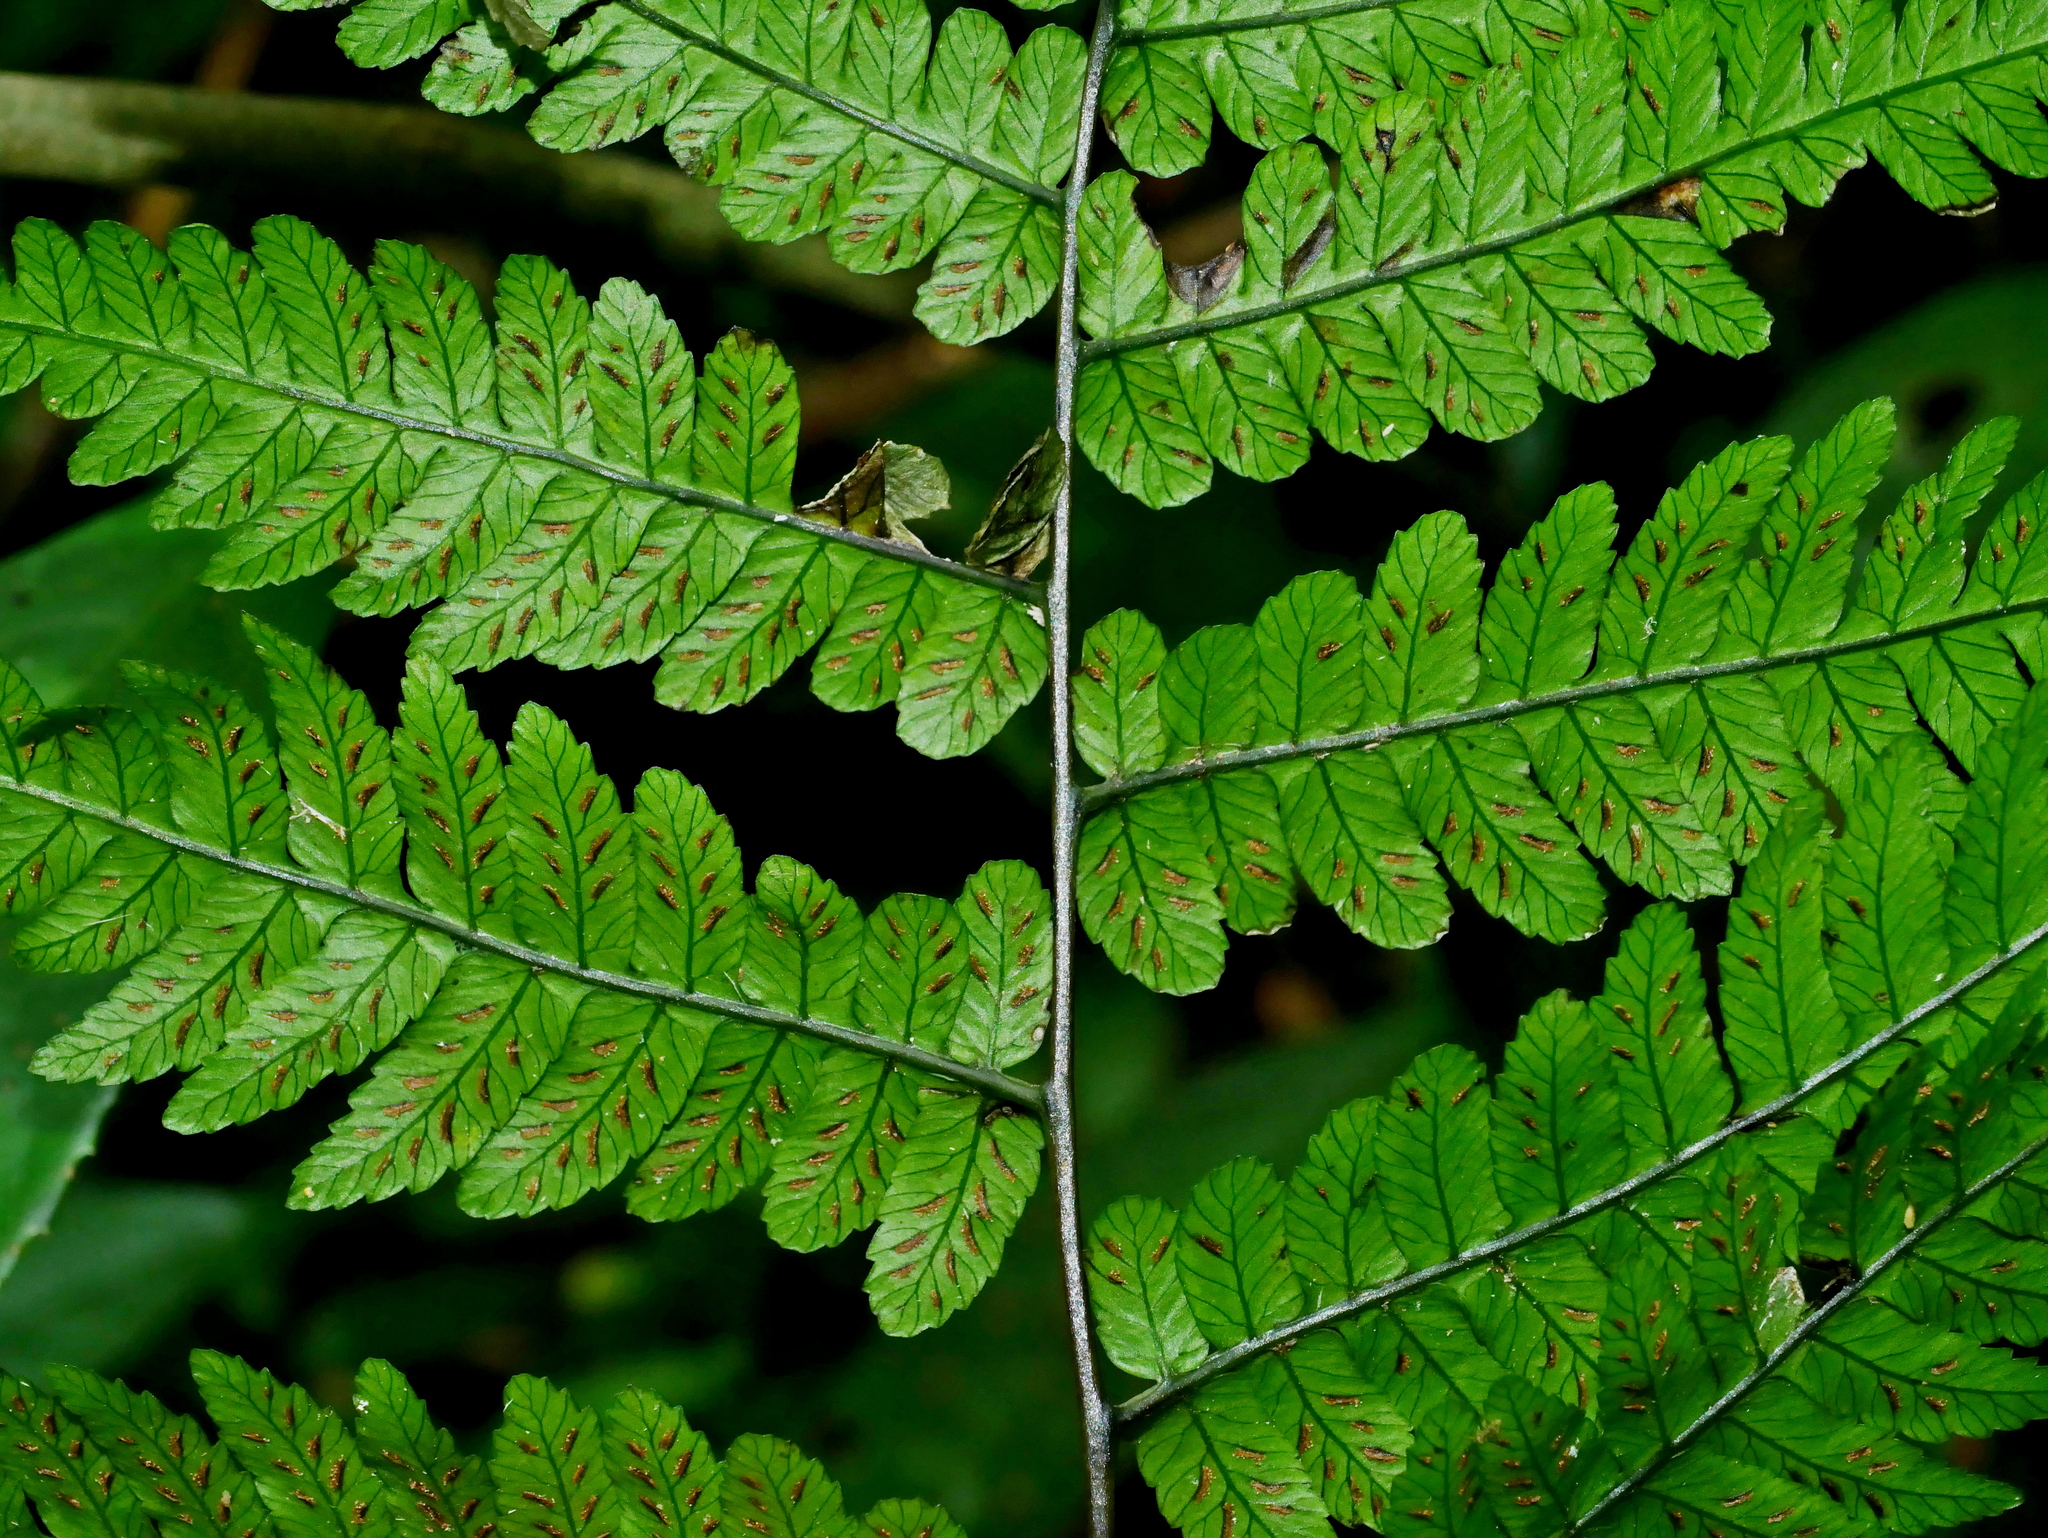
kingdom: Plantae
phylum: Tracheophyta
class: Polypodiopsida
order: Polypodiales
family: Athyriaceae
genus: Diplazium
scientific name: Diplazium petri
